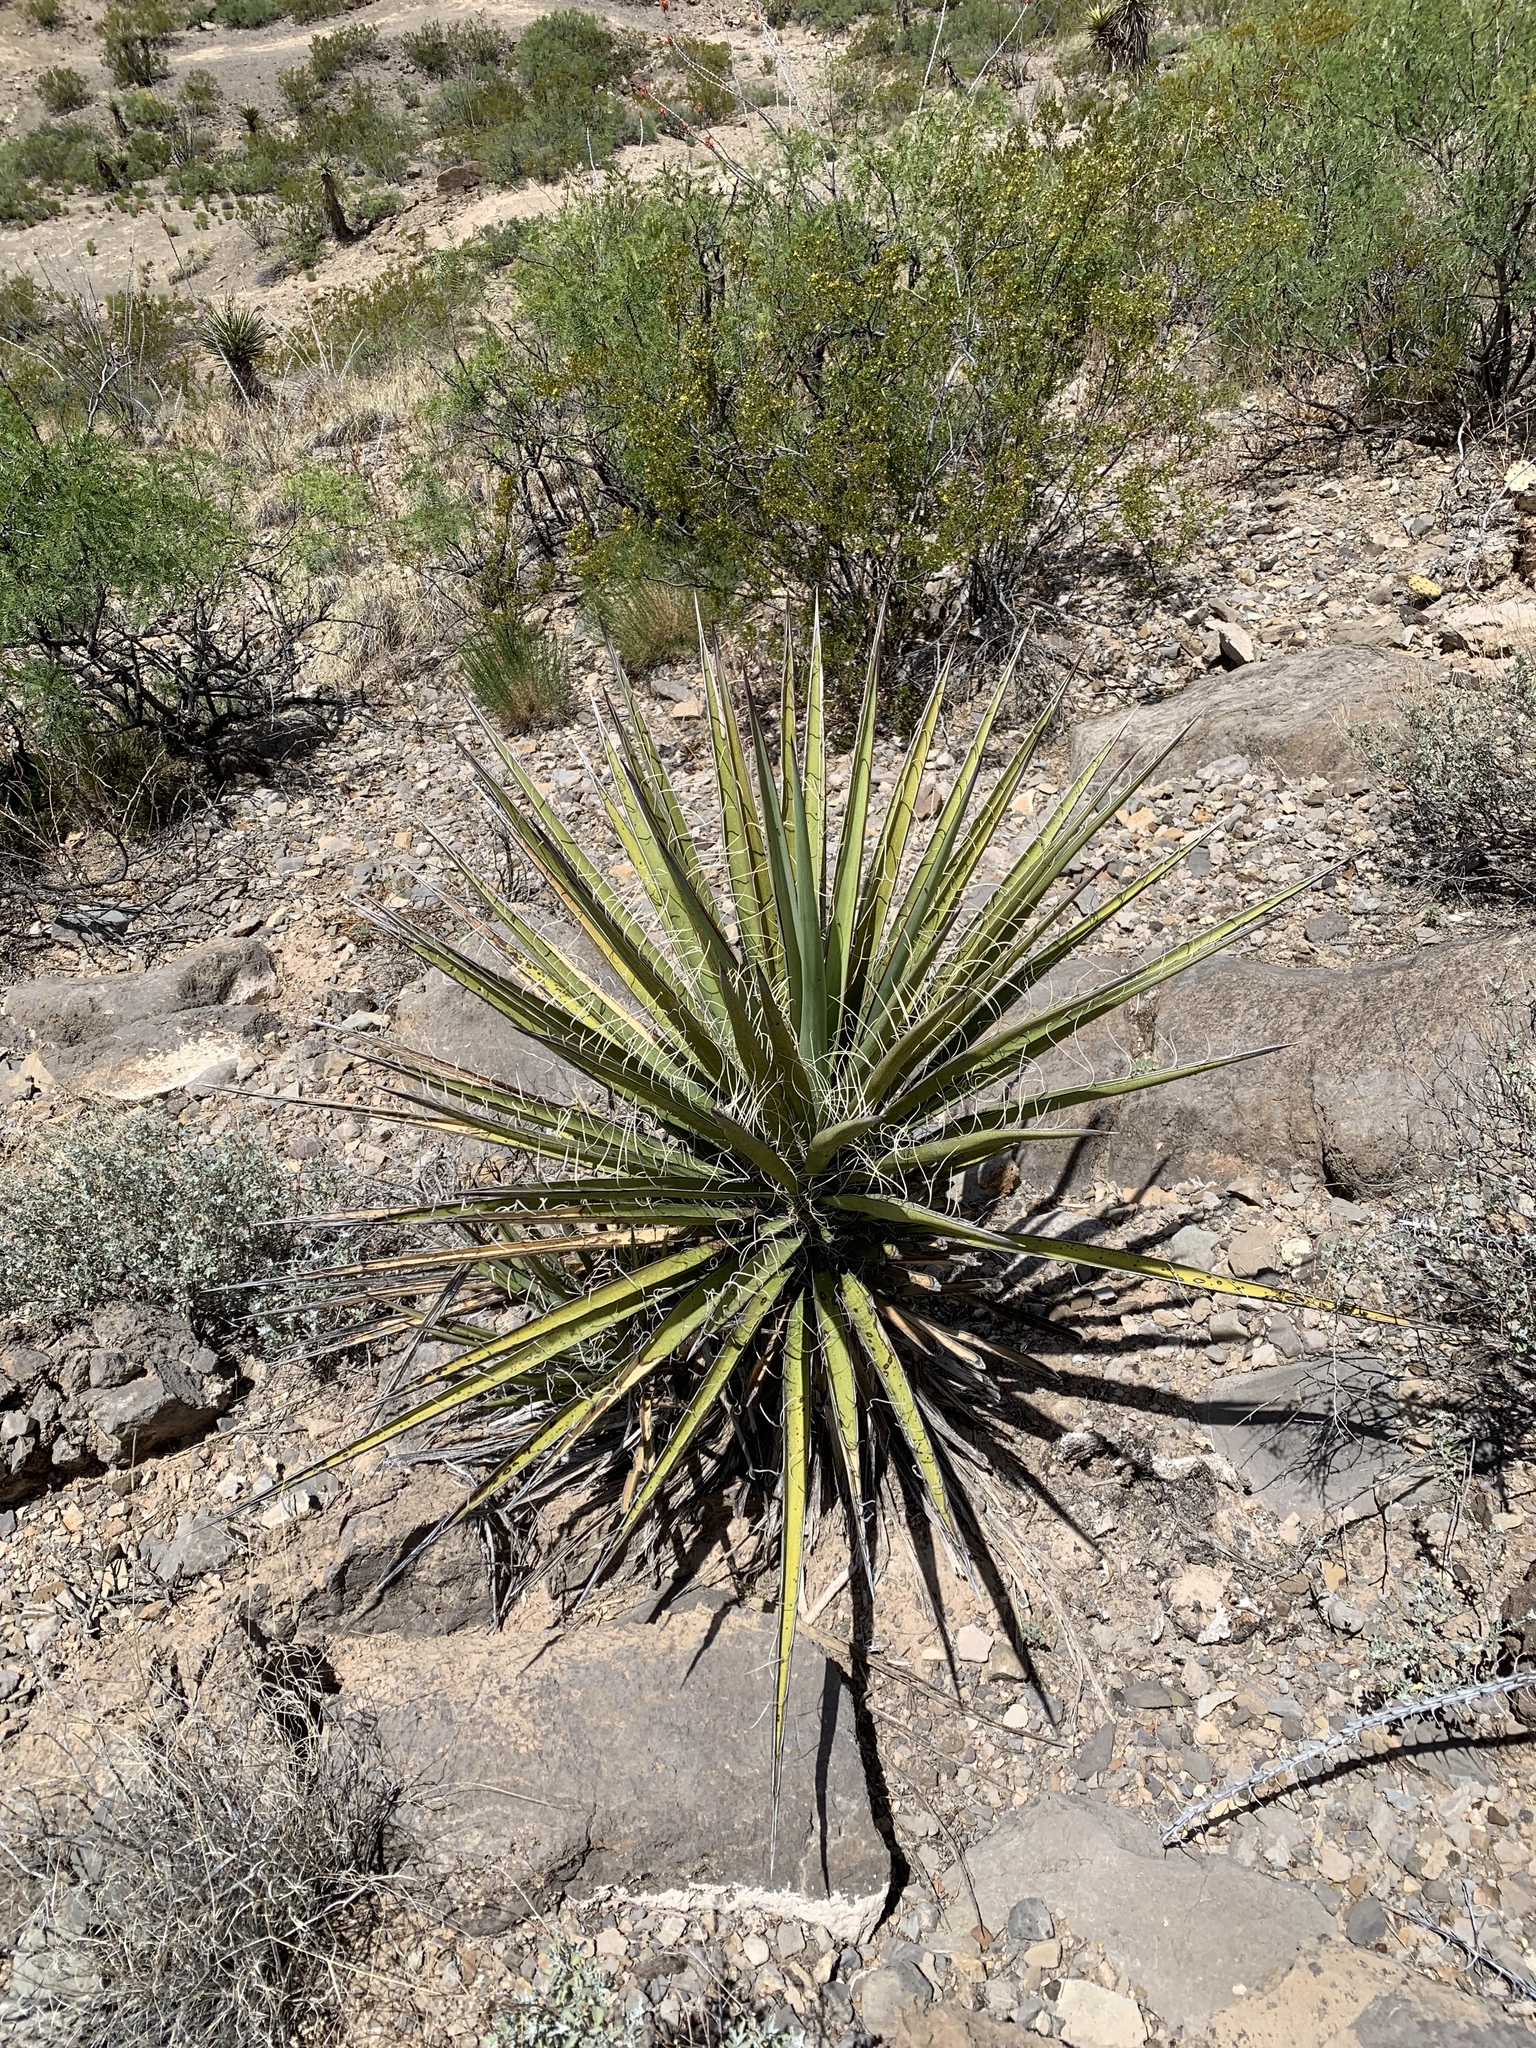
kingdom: Plantae
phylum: Tracheophyta
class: Liliopsida
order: Asparagales
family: Asparagaceae
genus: Yucca
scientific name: Yucca treculiana
